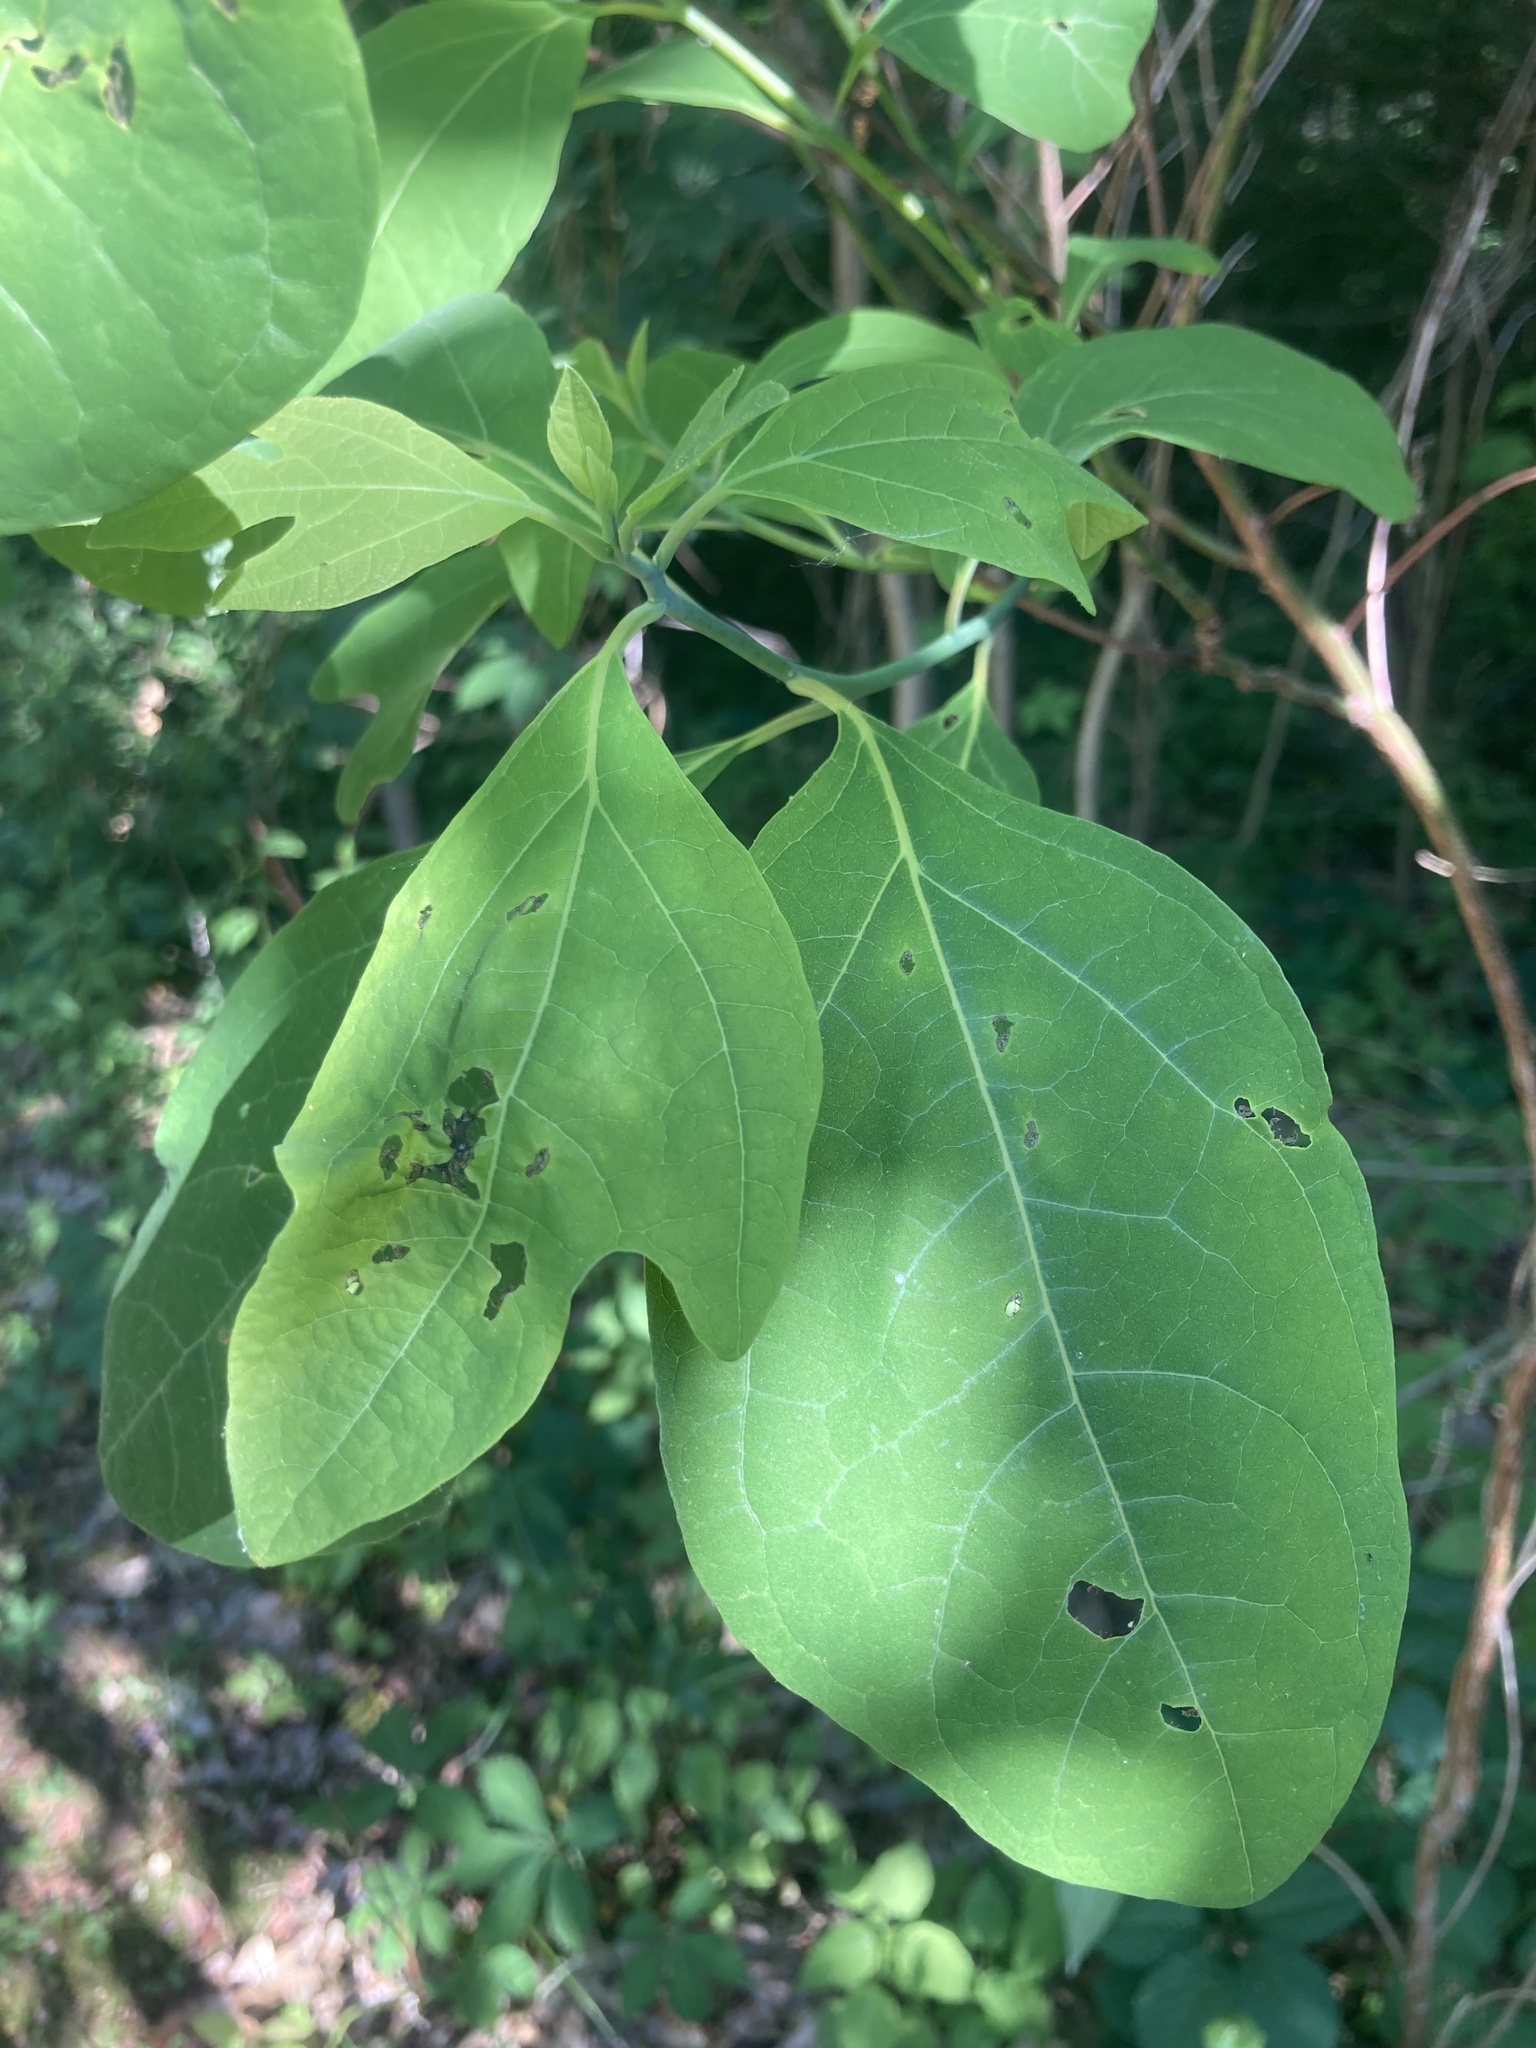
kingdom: Plantae
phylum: Tracheophyta
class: Magnoliopsida
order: Laurales
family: Lauraceae
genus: Sassafras
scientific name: Sassafras albidum
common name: Sassafras
